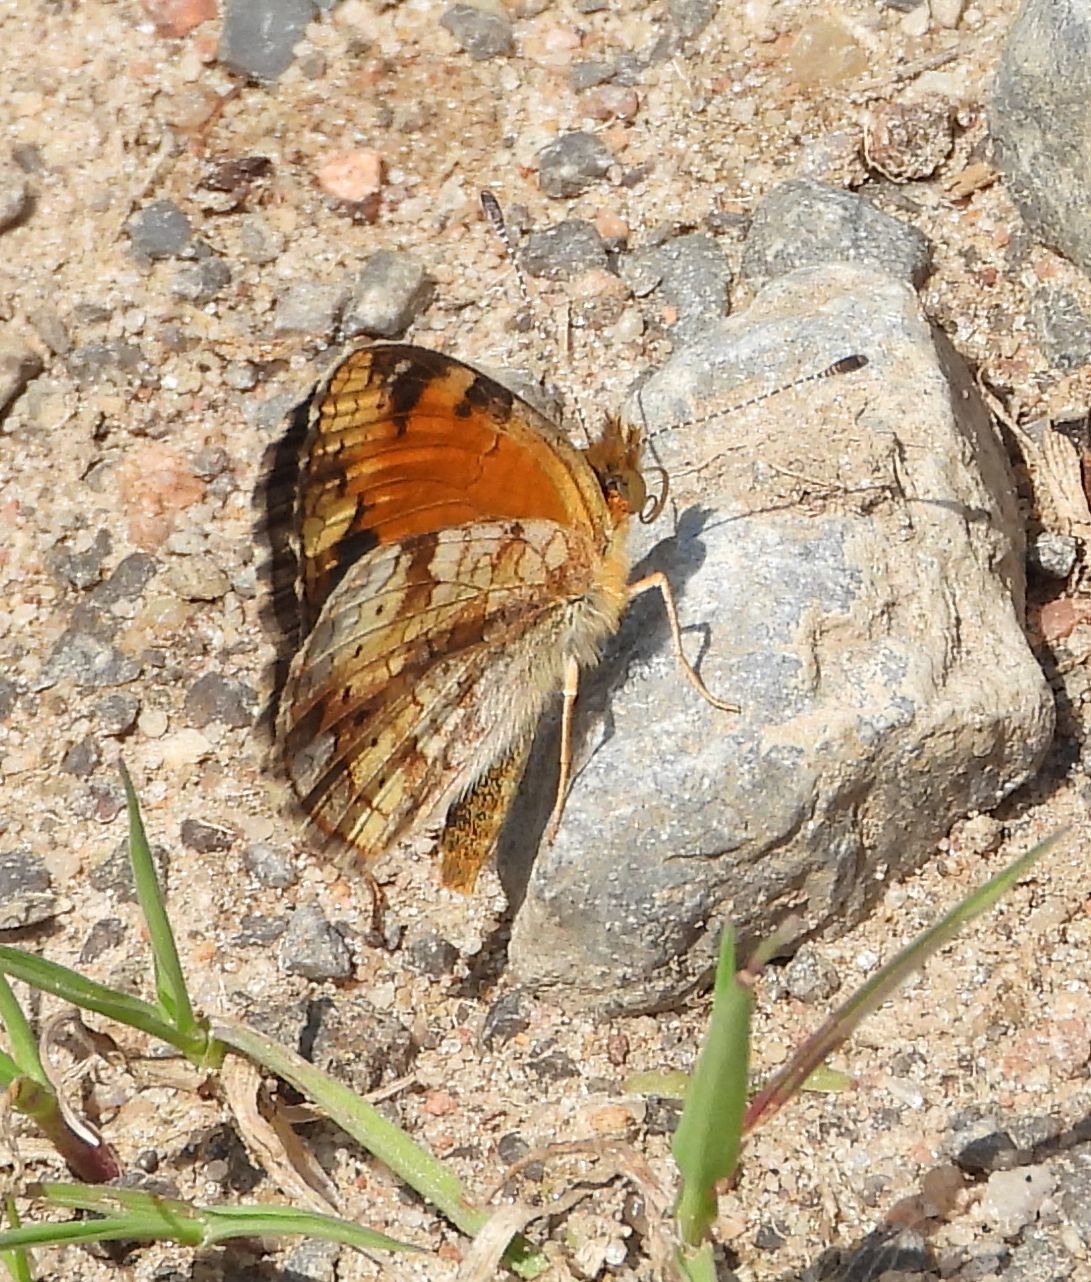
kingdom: Animalia
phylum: Arthropoda
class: Insecta
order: Lepidoptera
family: Nymphalidae
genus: Phyciodes
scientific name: Phyciodes tharos
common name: Pearl crescent
